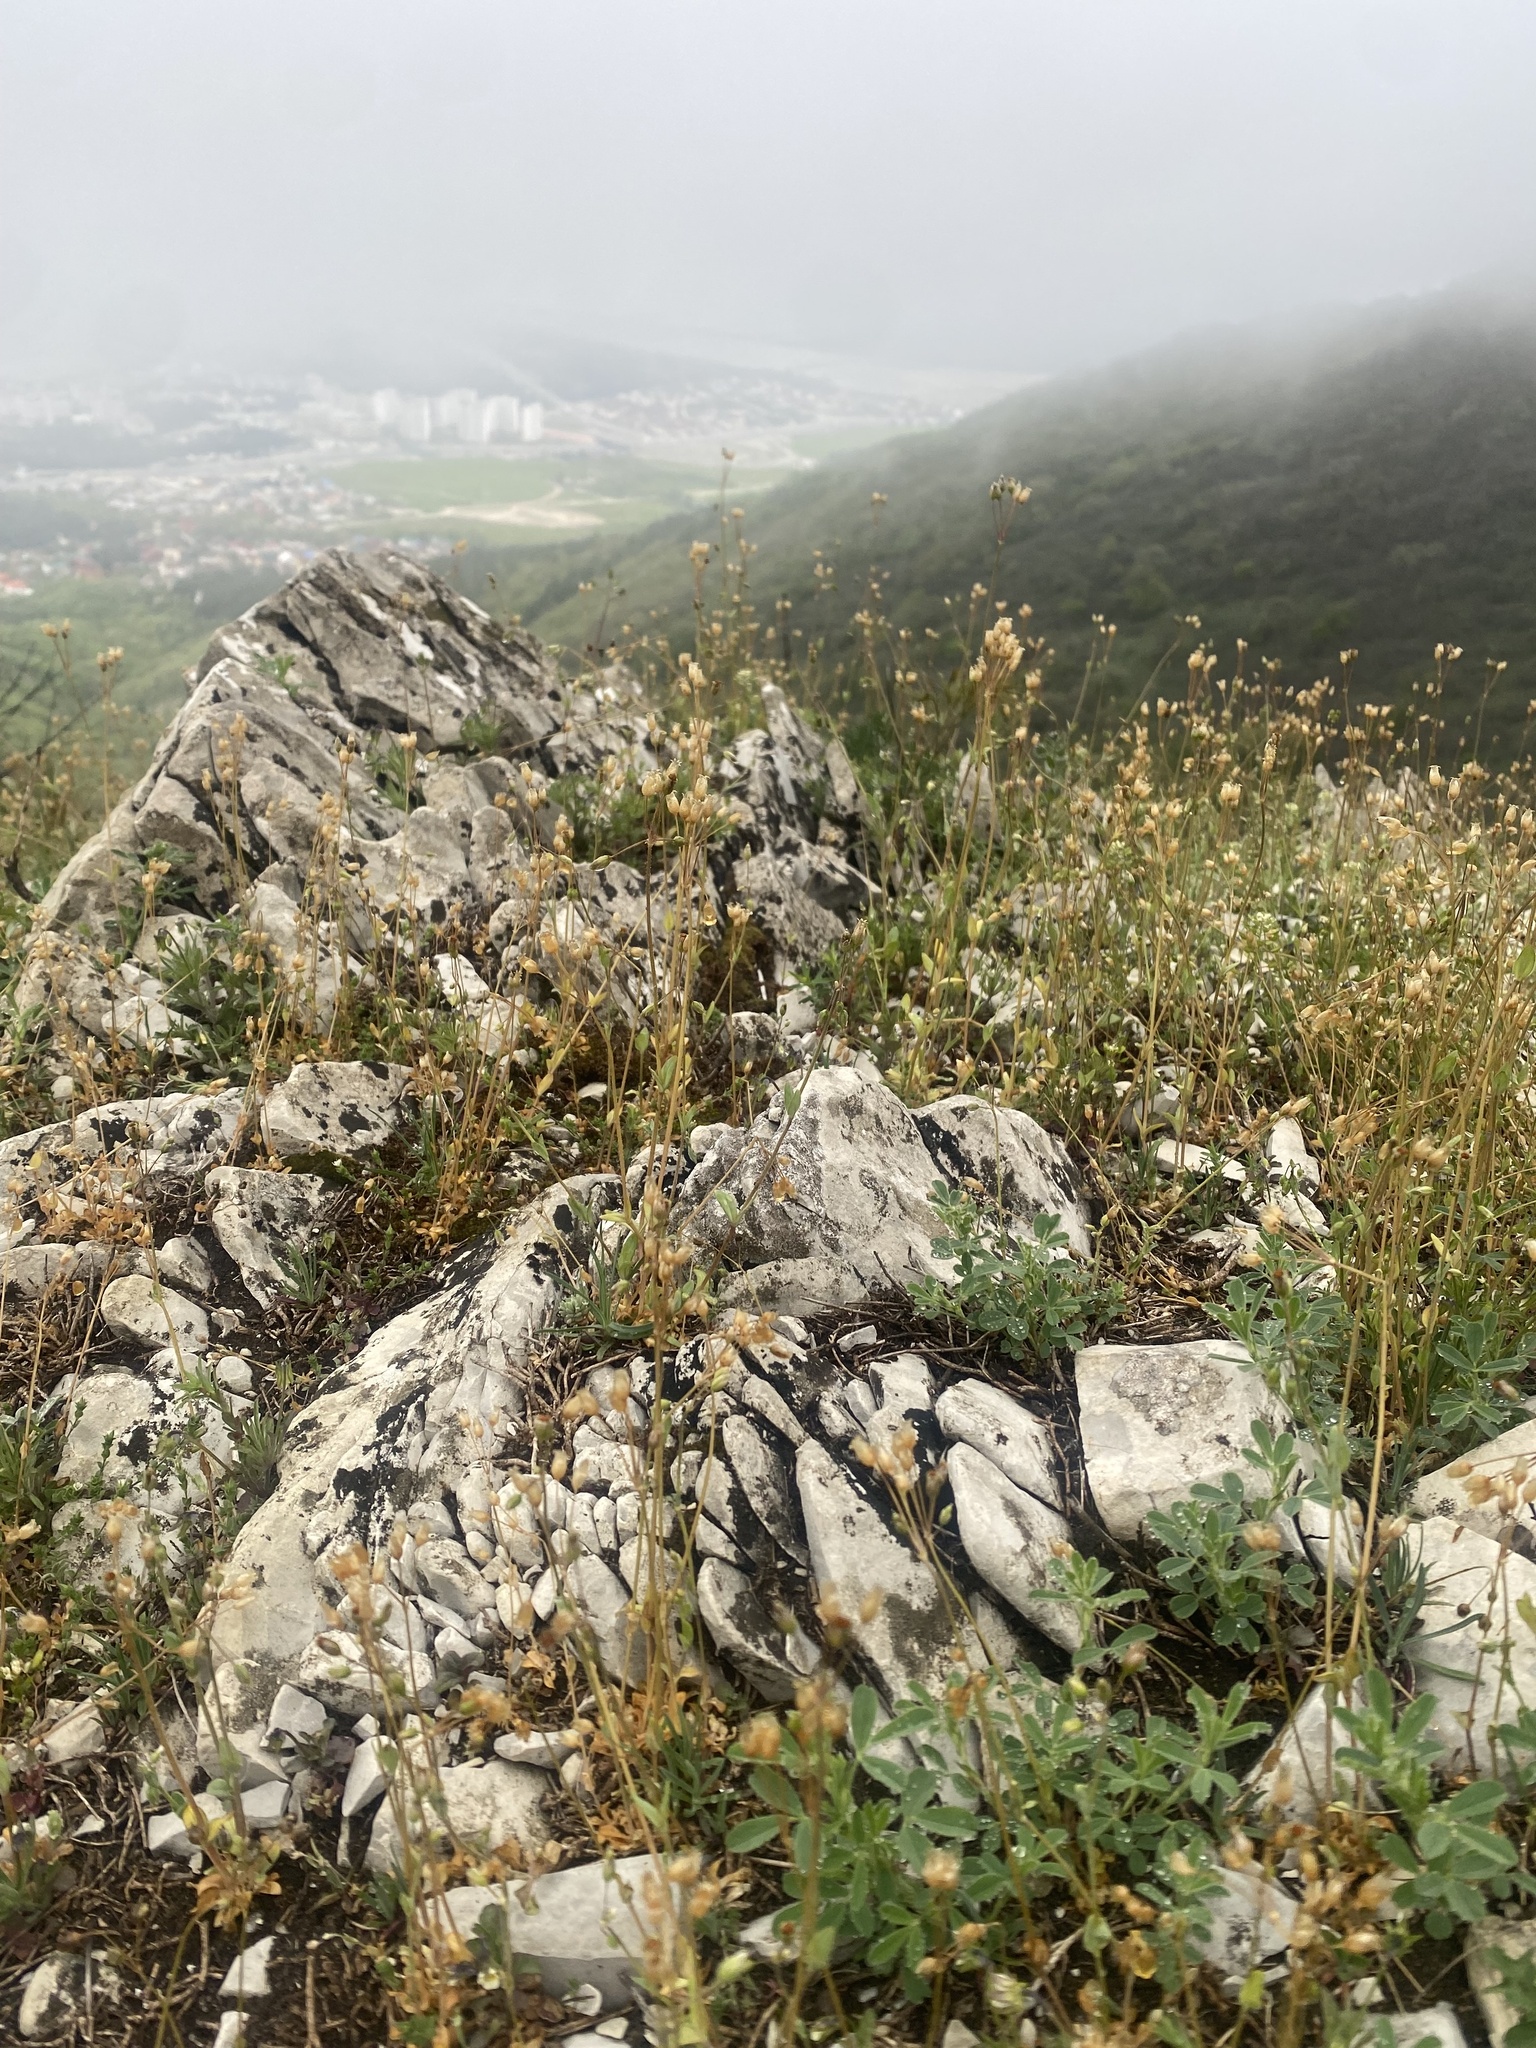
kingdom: Plantae
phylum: Tracheophyta
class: Magnoliopsida
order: Caryophyllales
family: Caryophyllaceae
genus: Holosteum
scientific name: Holosteum umbellatum
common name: Jagged chickweed
